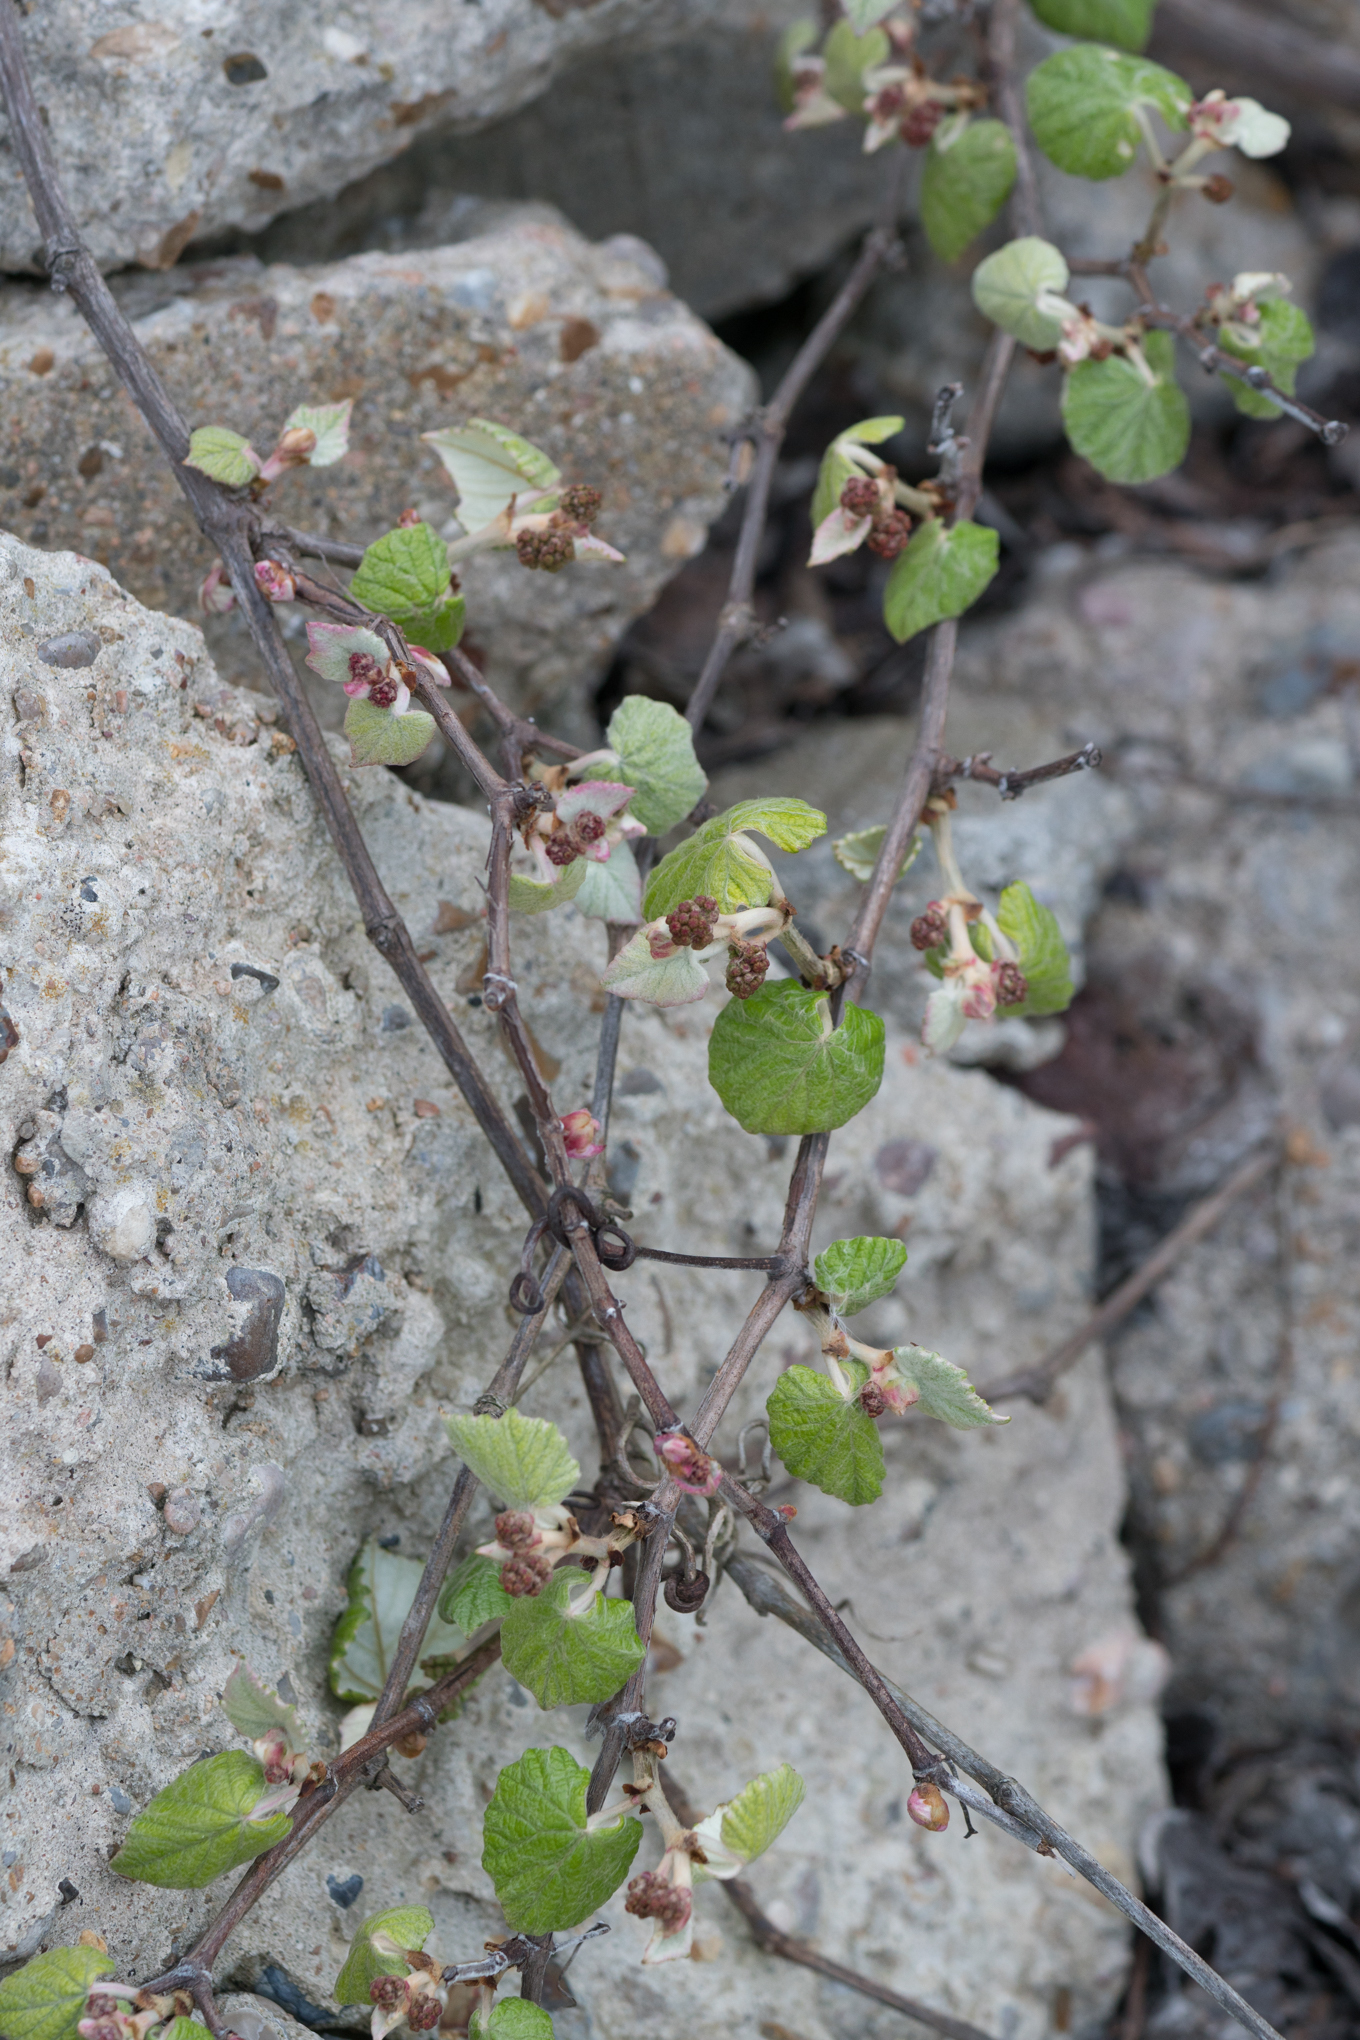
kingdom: Plantae
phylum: Tracheophyta
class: Magnoliopsida
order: Vitales
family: Vitaceae
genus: Vitis
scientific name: Vitis mustangensis
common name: Mustang grape
